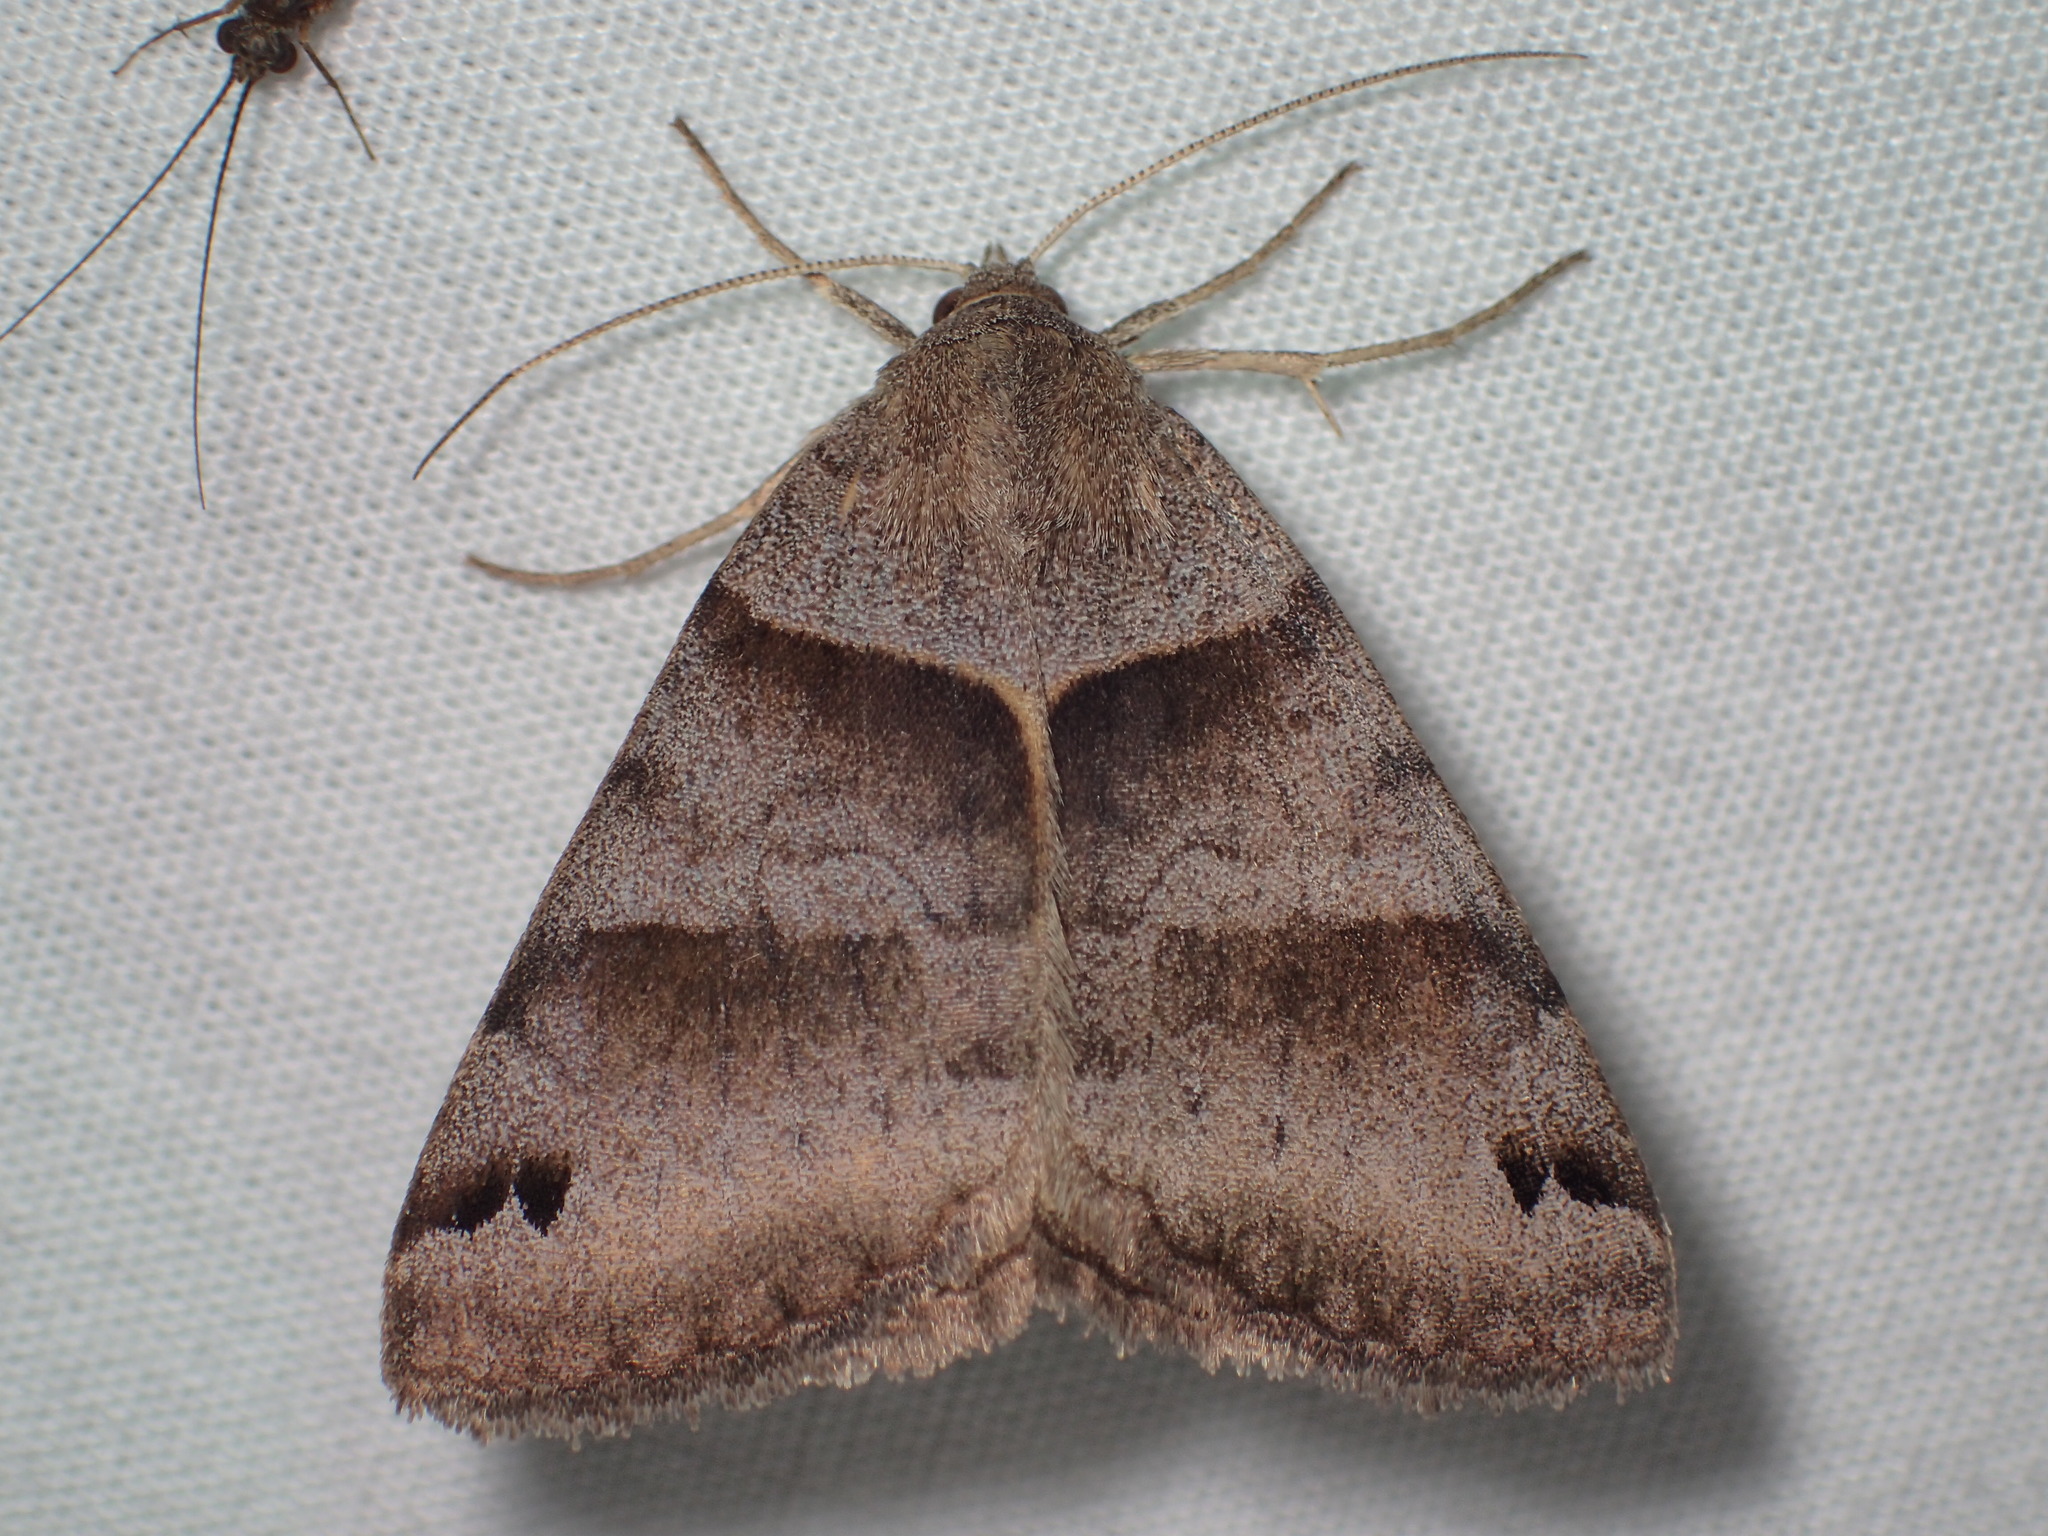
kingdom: Animalia
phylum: Arthropoda
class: Insecta
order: Lepidoptera
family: Erebidae
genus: Caenurgina
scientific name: Caenurgina crassiuscula
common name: Double-barred
